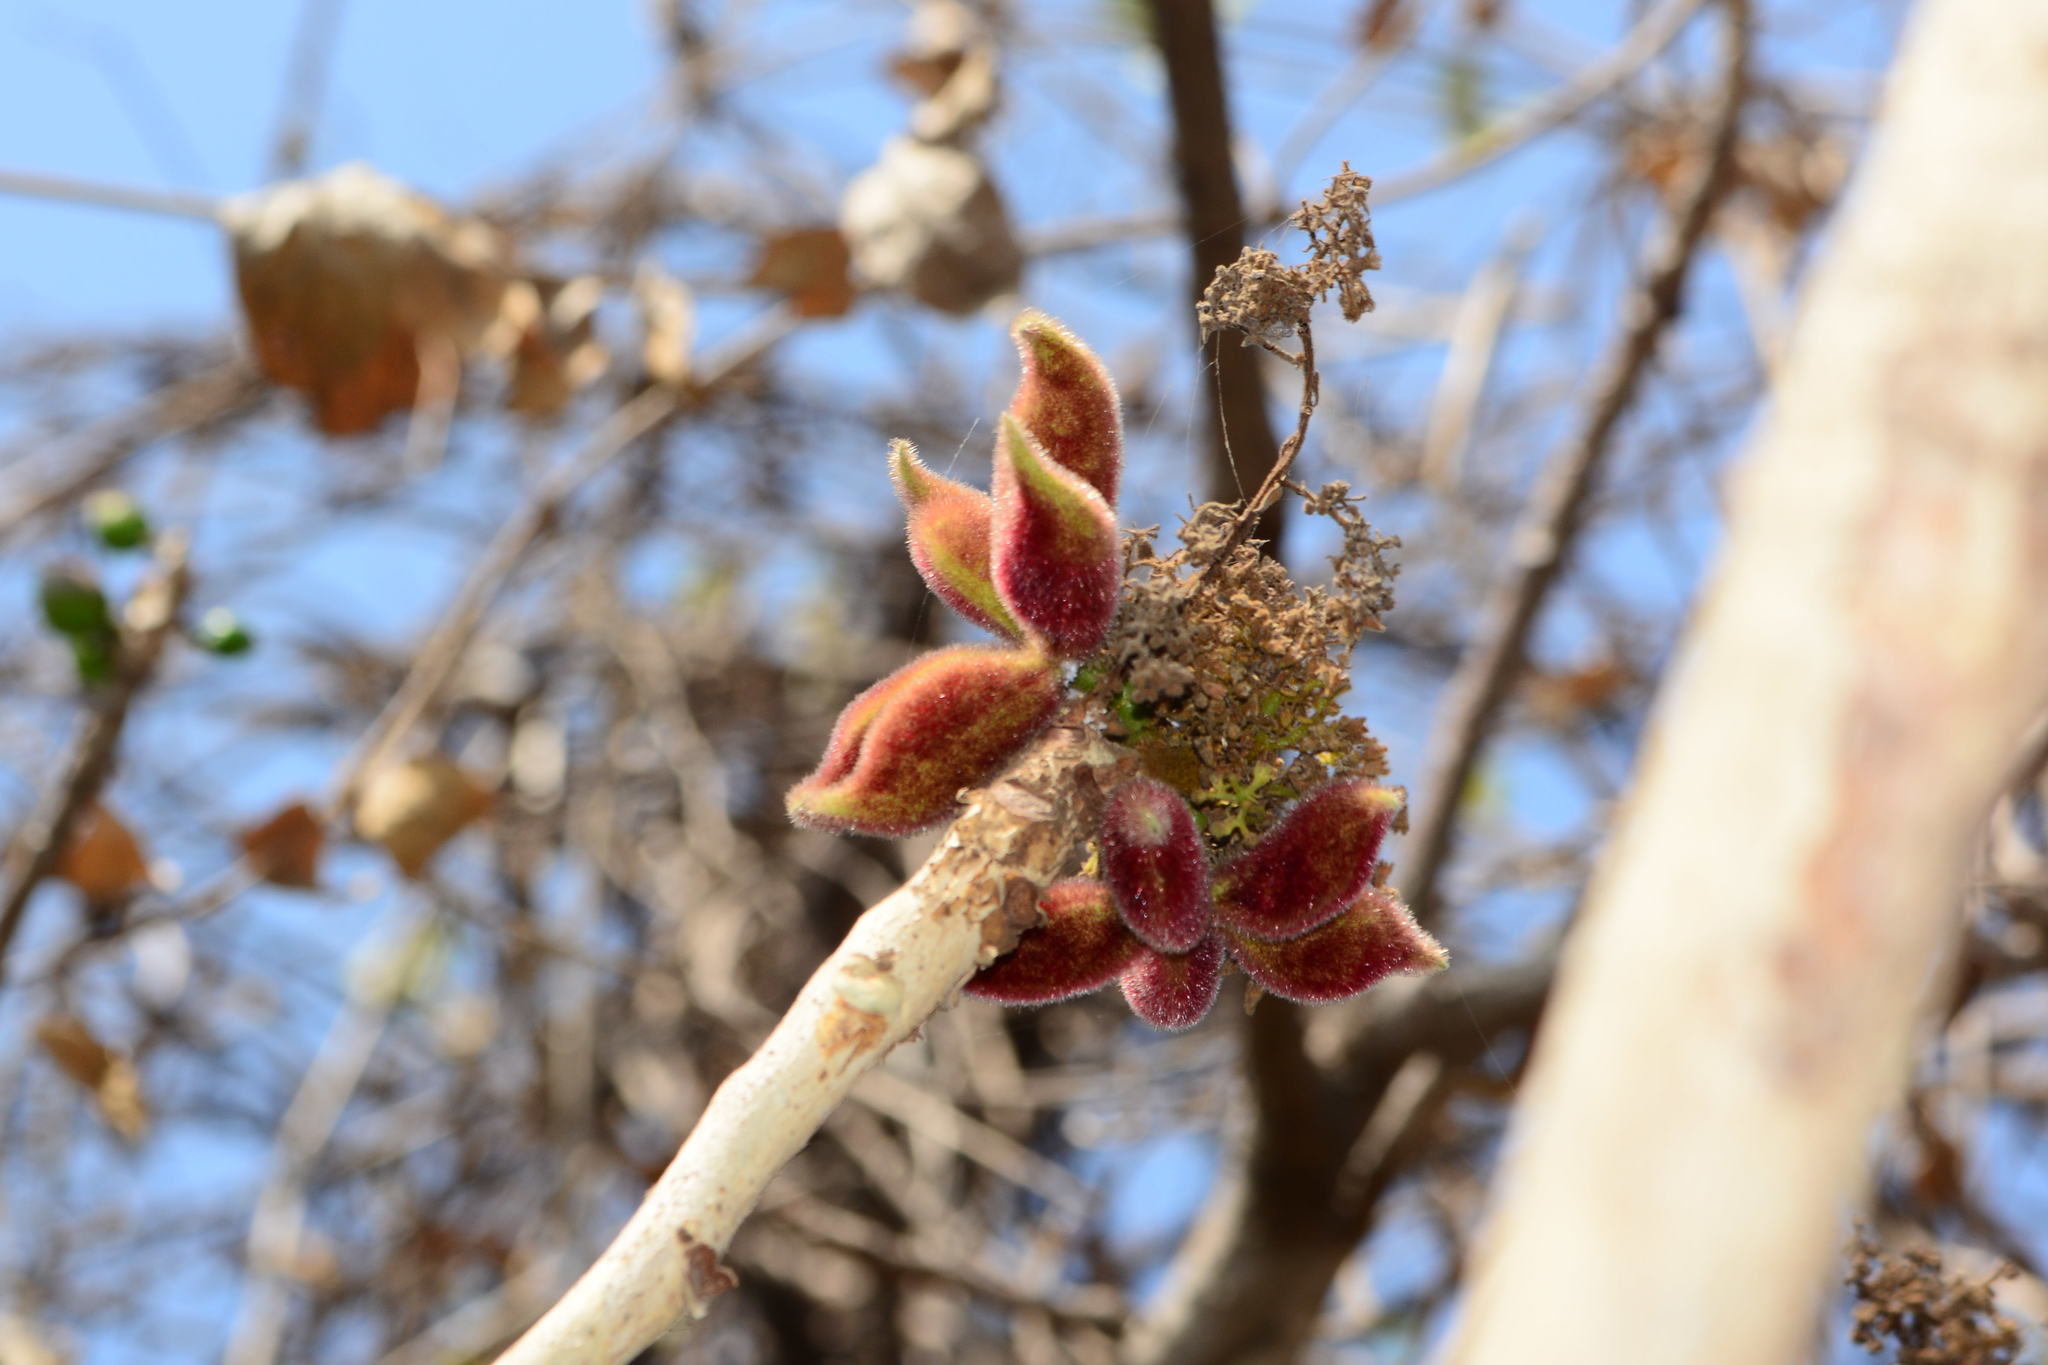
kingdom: Plantae
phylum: Tracheophyta
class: Magnoliopsida
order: Malvales
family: Malvaceae
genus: Sterculia
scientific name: Sterculia urens
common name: Indian-tragacanth
